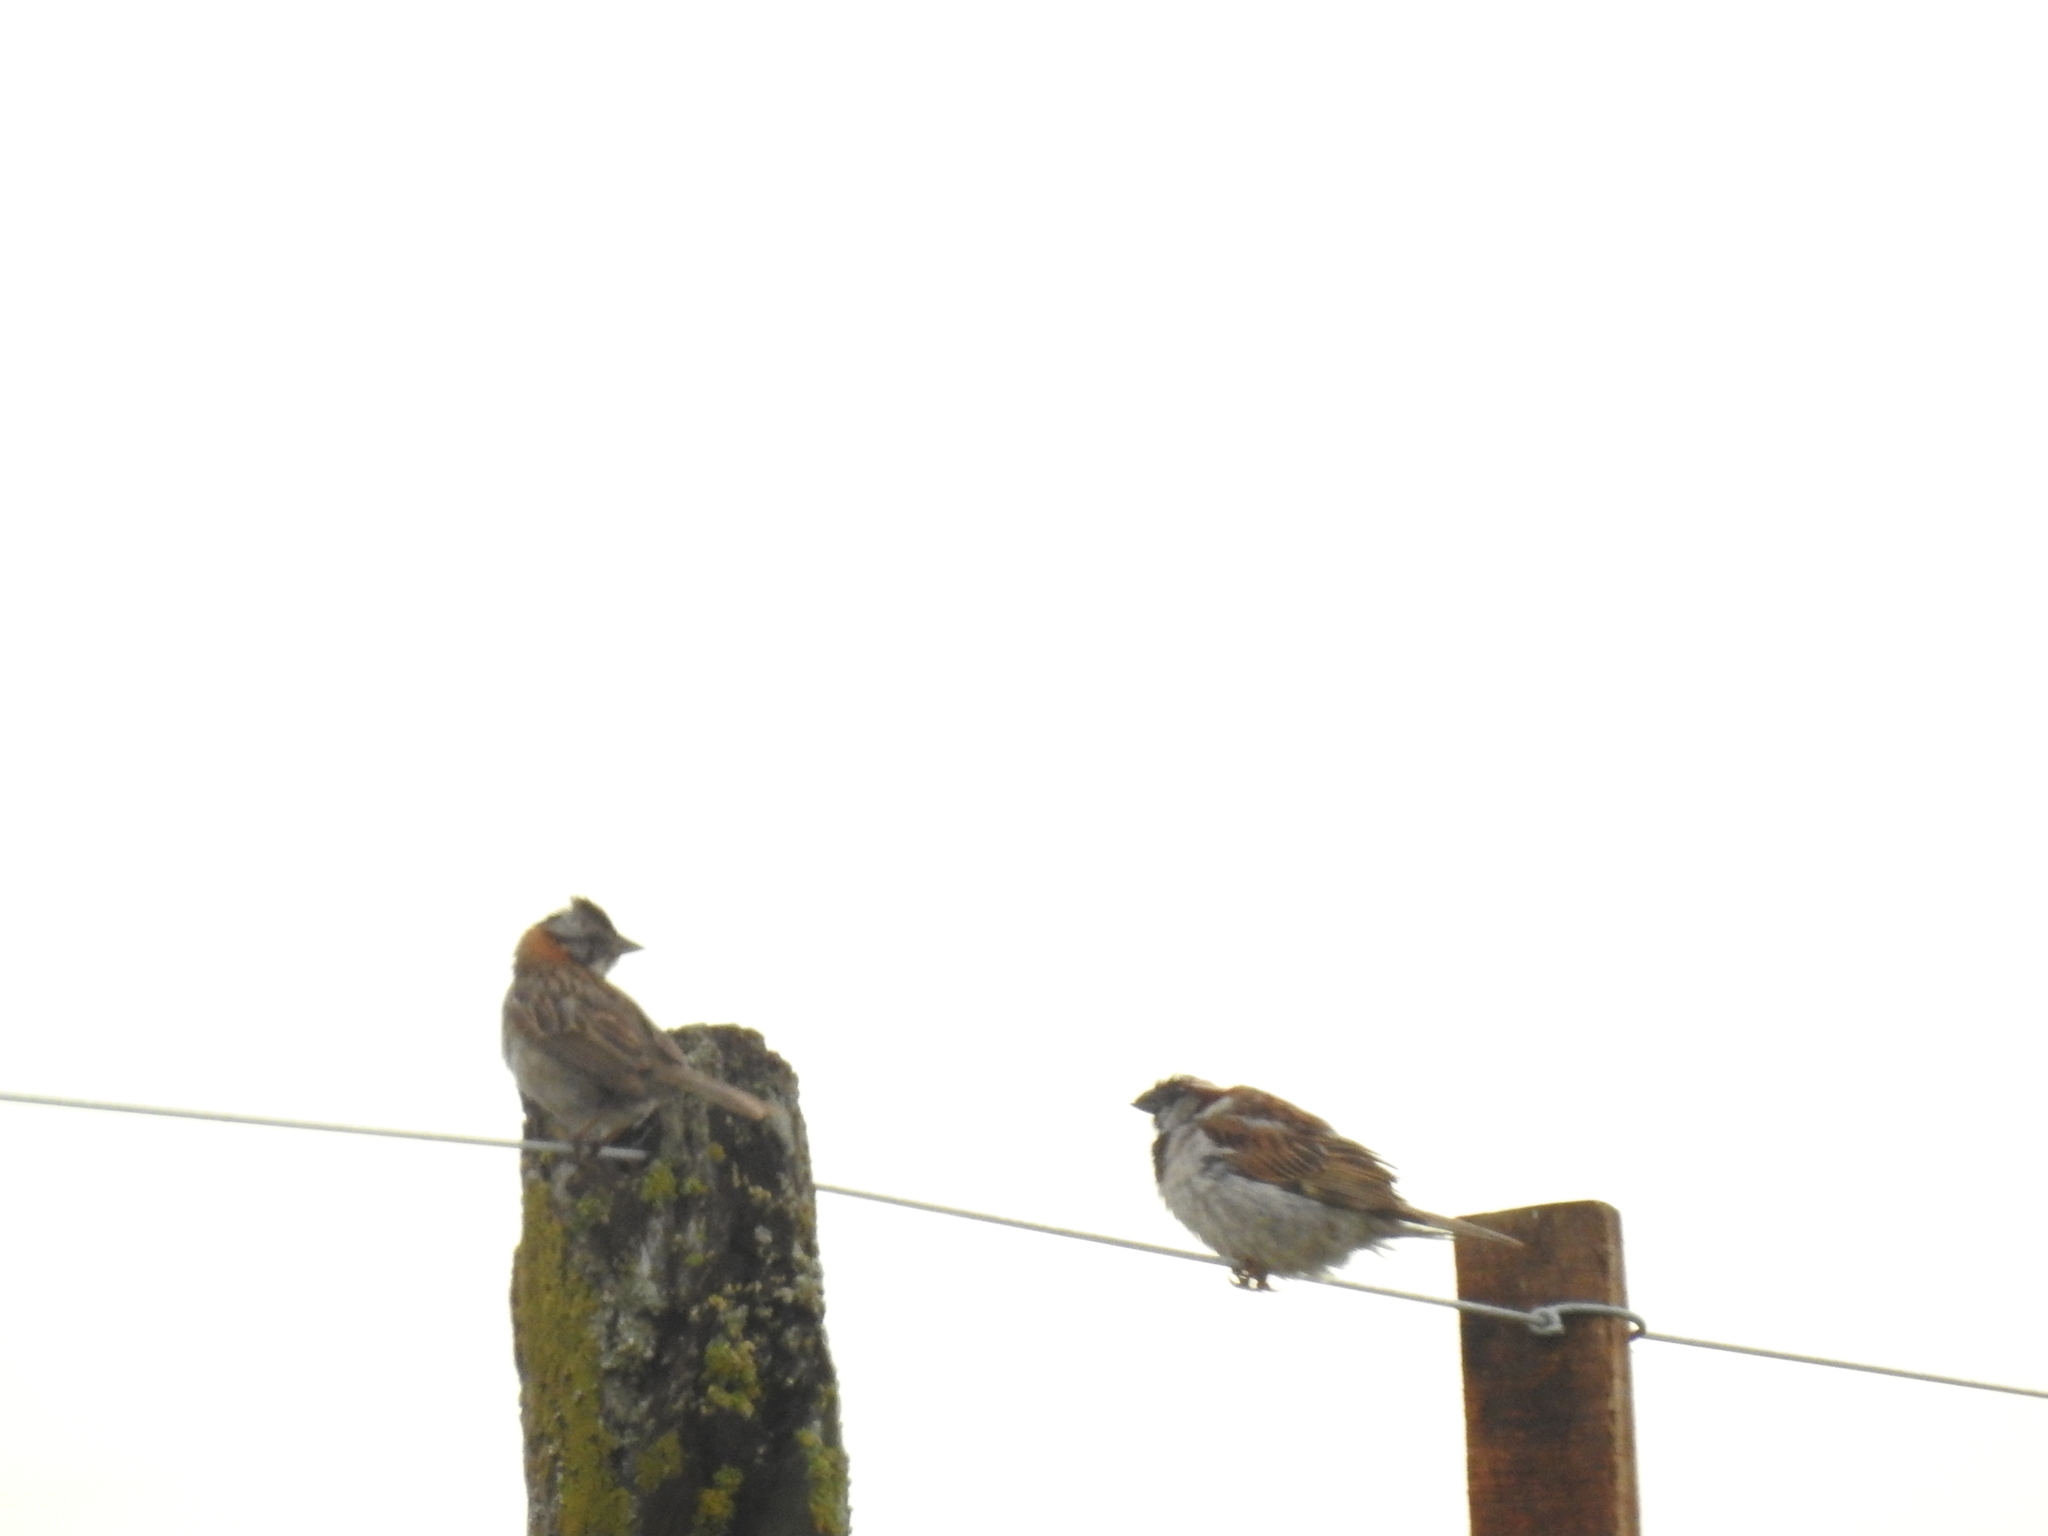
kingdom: Animalia
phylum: Chordata
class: Aves
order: Passeriformes
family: Passerellidae
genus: Zonotrichia
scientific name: Zonotrichia capensis
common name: Rufous-collared sparrow
